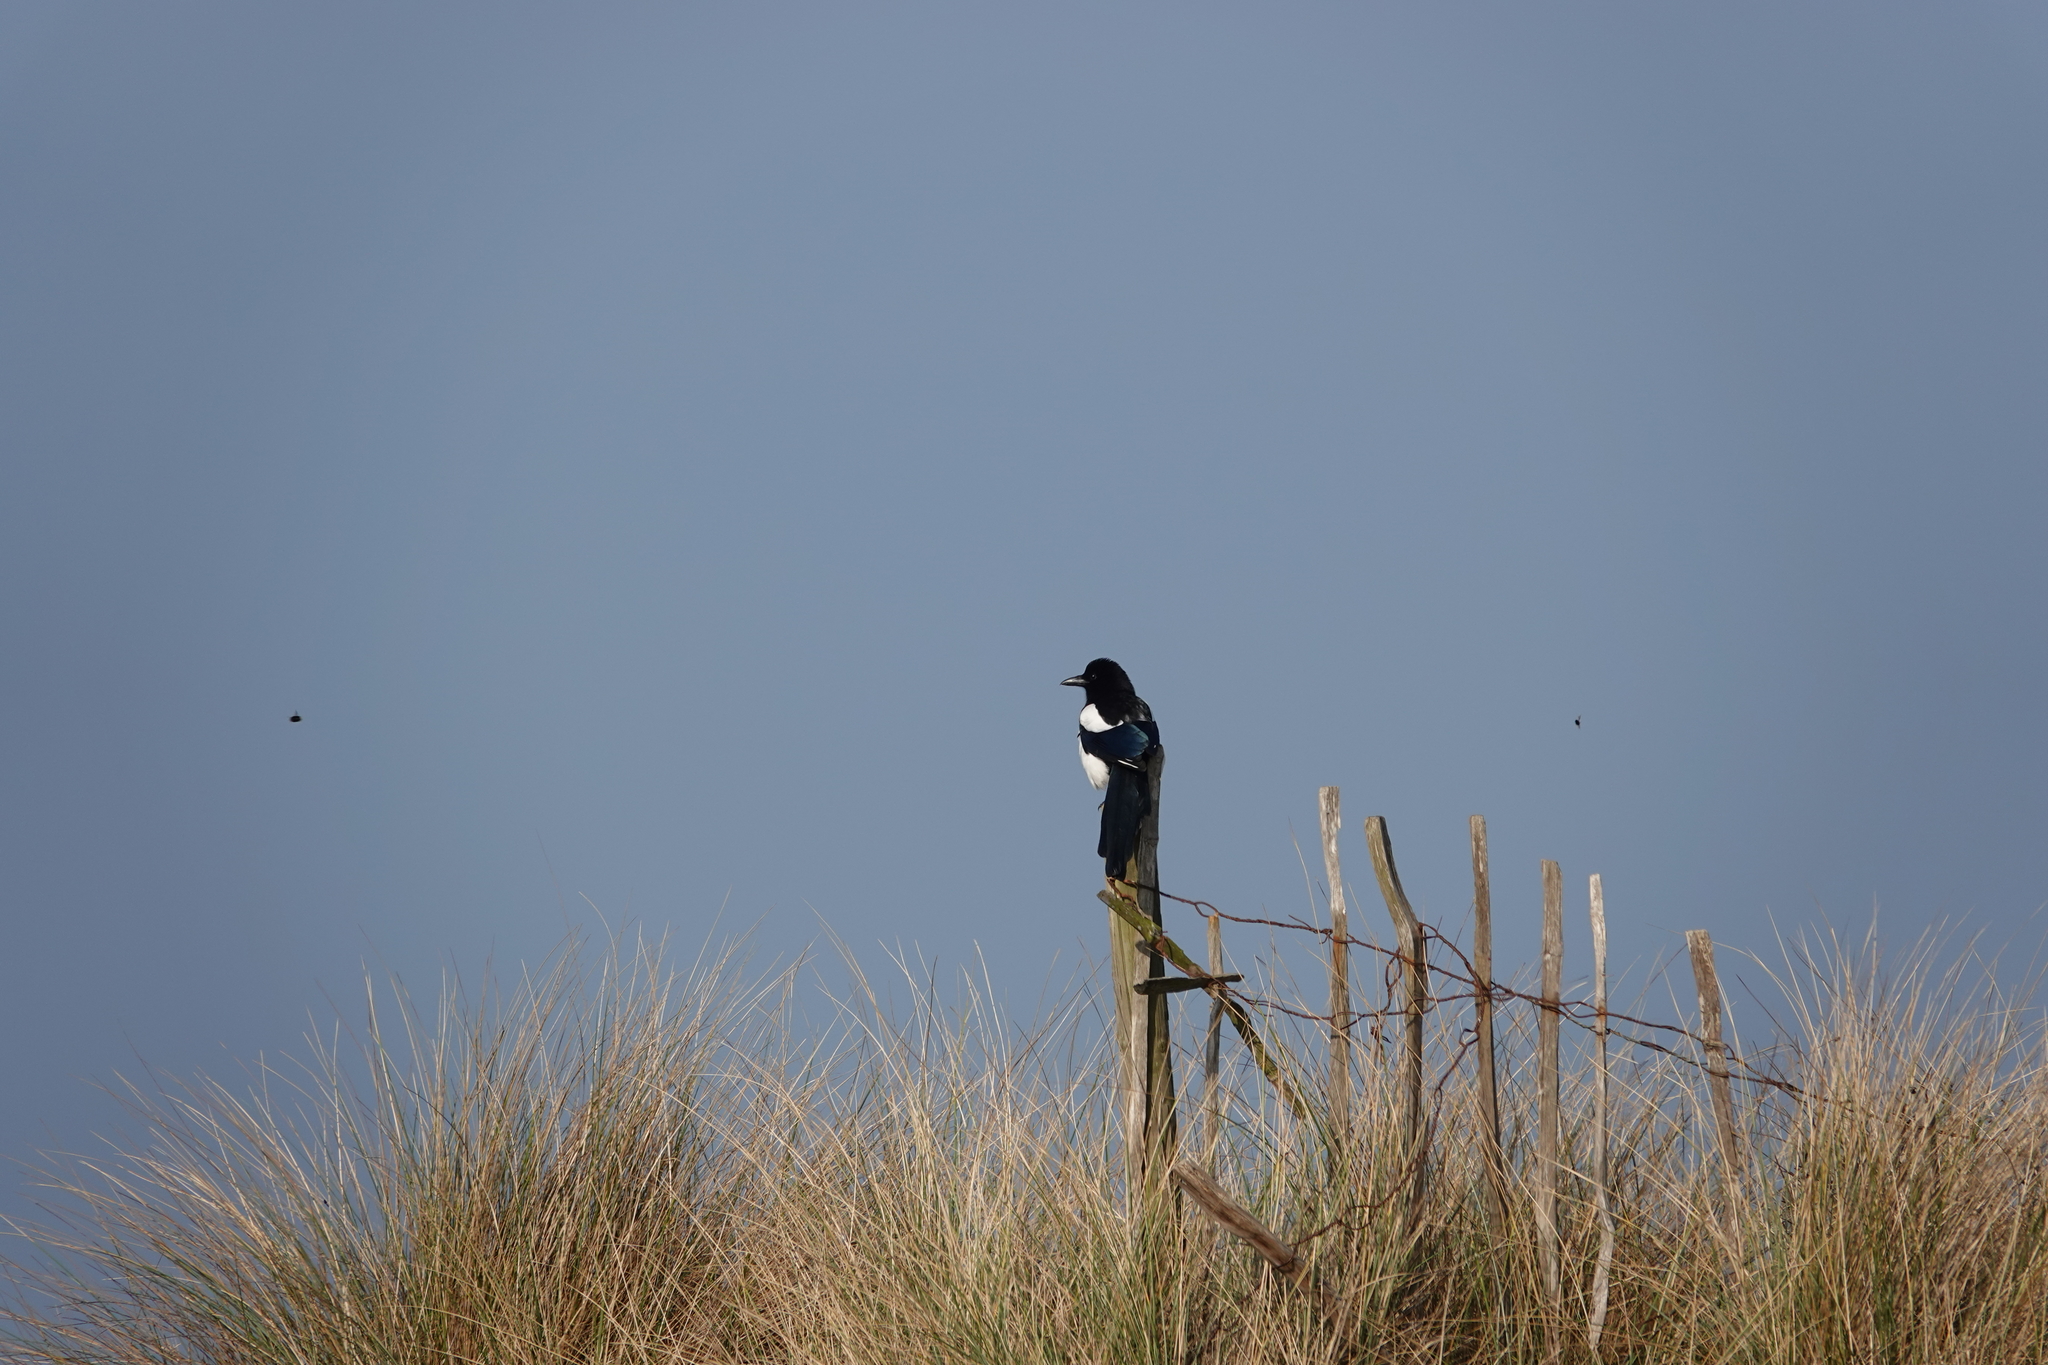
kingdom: Animalia
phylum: Chordata
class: Aves
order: Passeriformes
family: Corvidae
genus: Pica
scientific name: Pica pica
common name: Eurasian magpie
